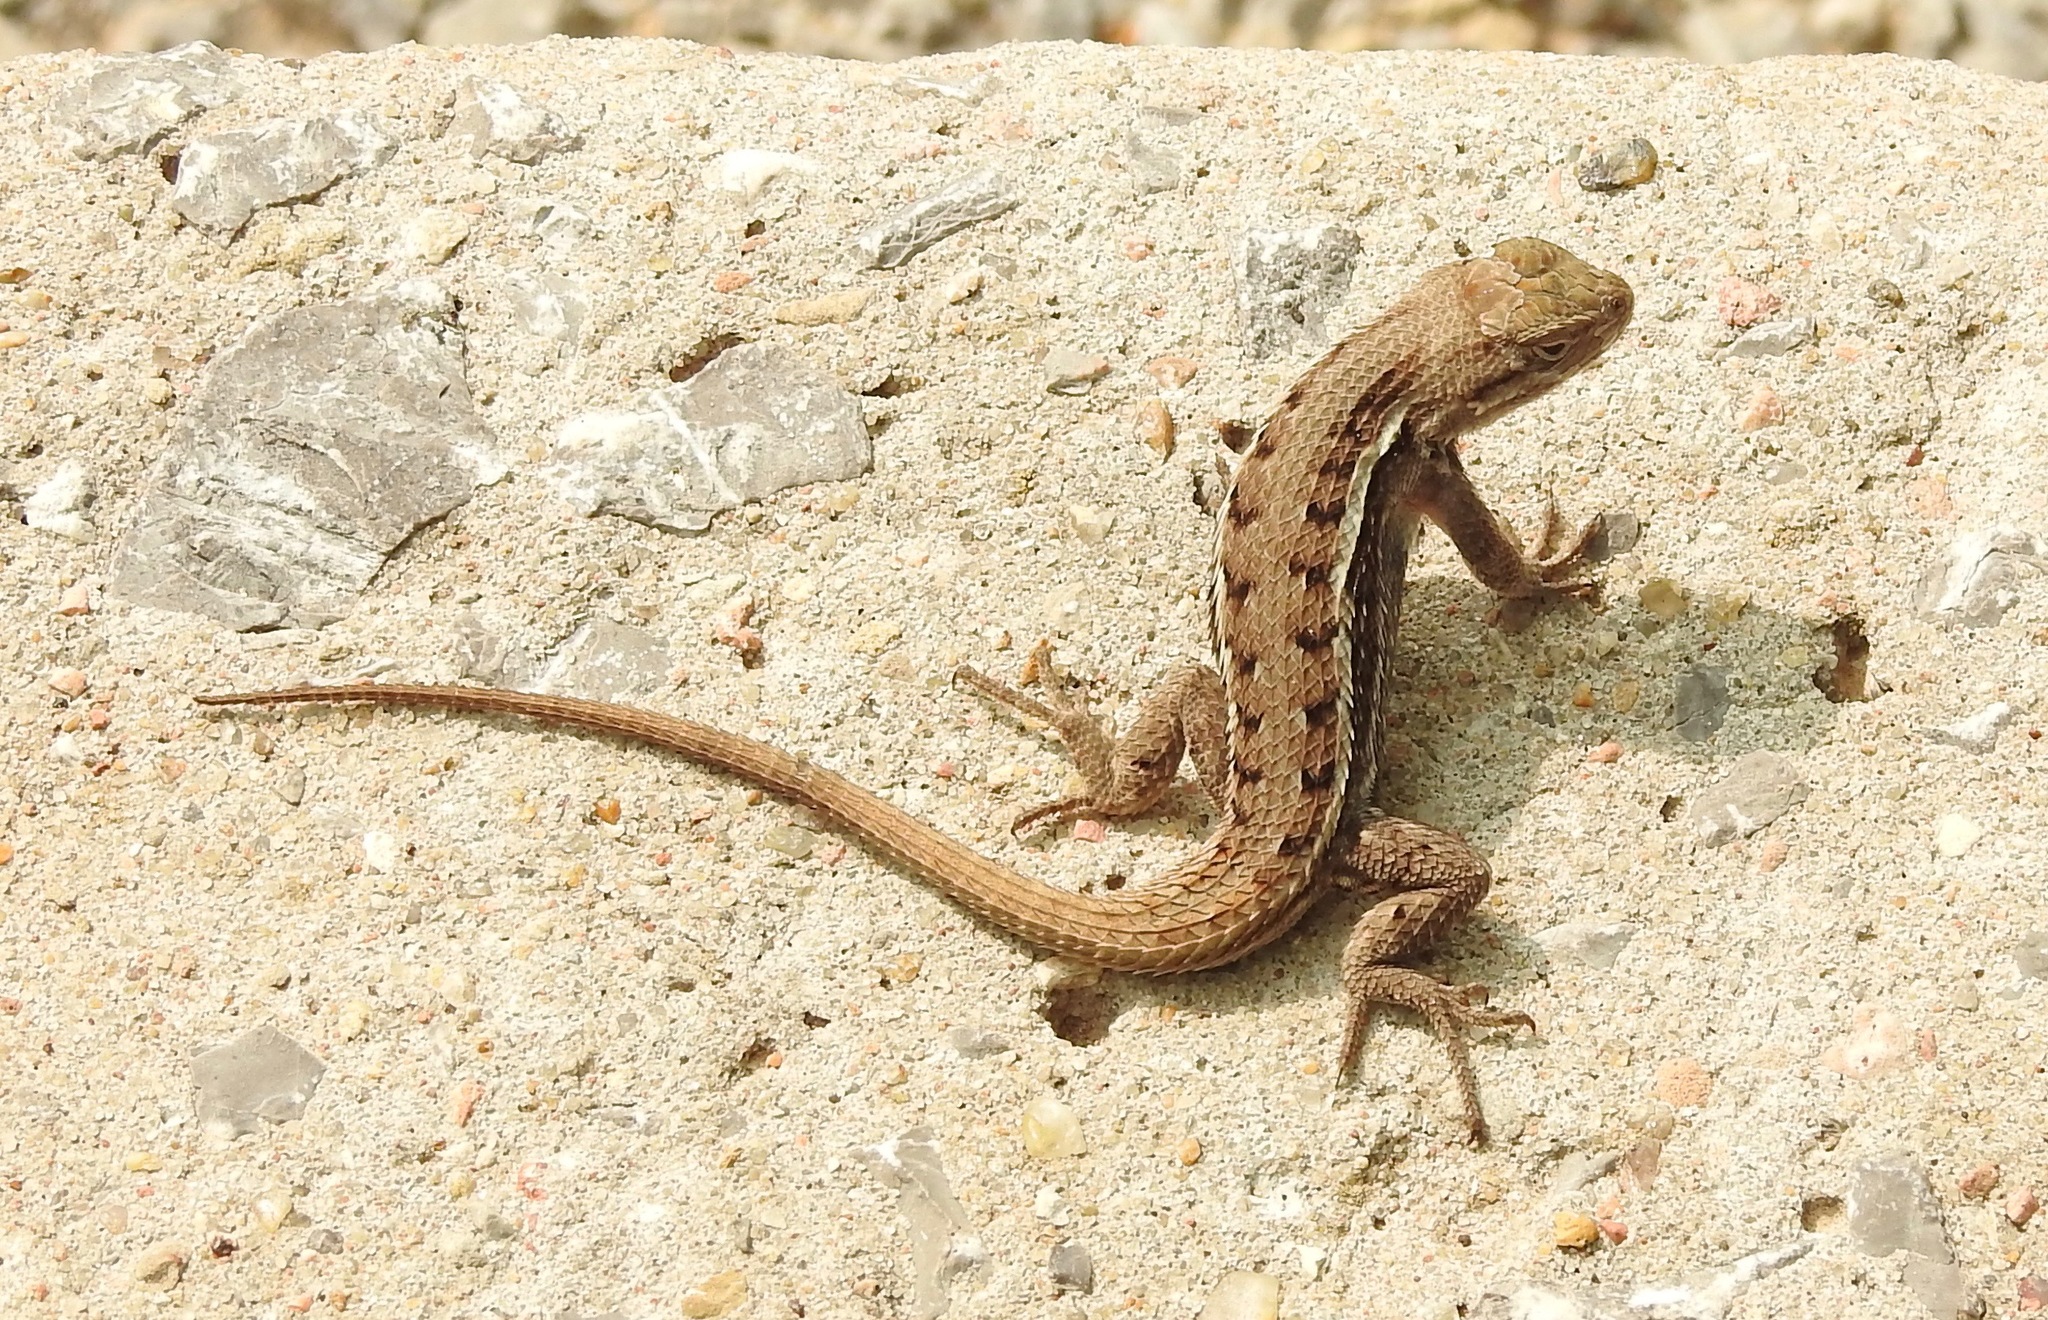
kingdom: Animalia
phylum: Chordata
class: Squamata
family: Phrynosomatidae
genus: Sceloporus
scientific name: Sceloporus consobrinus
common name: Southern prairie lizard
